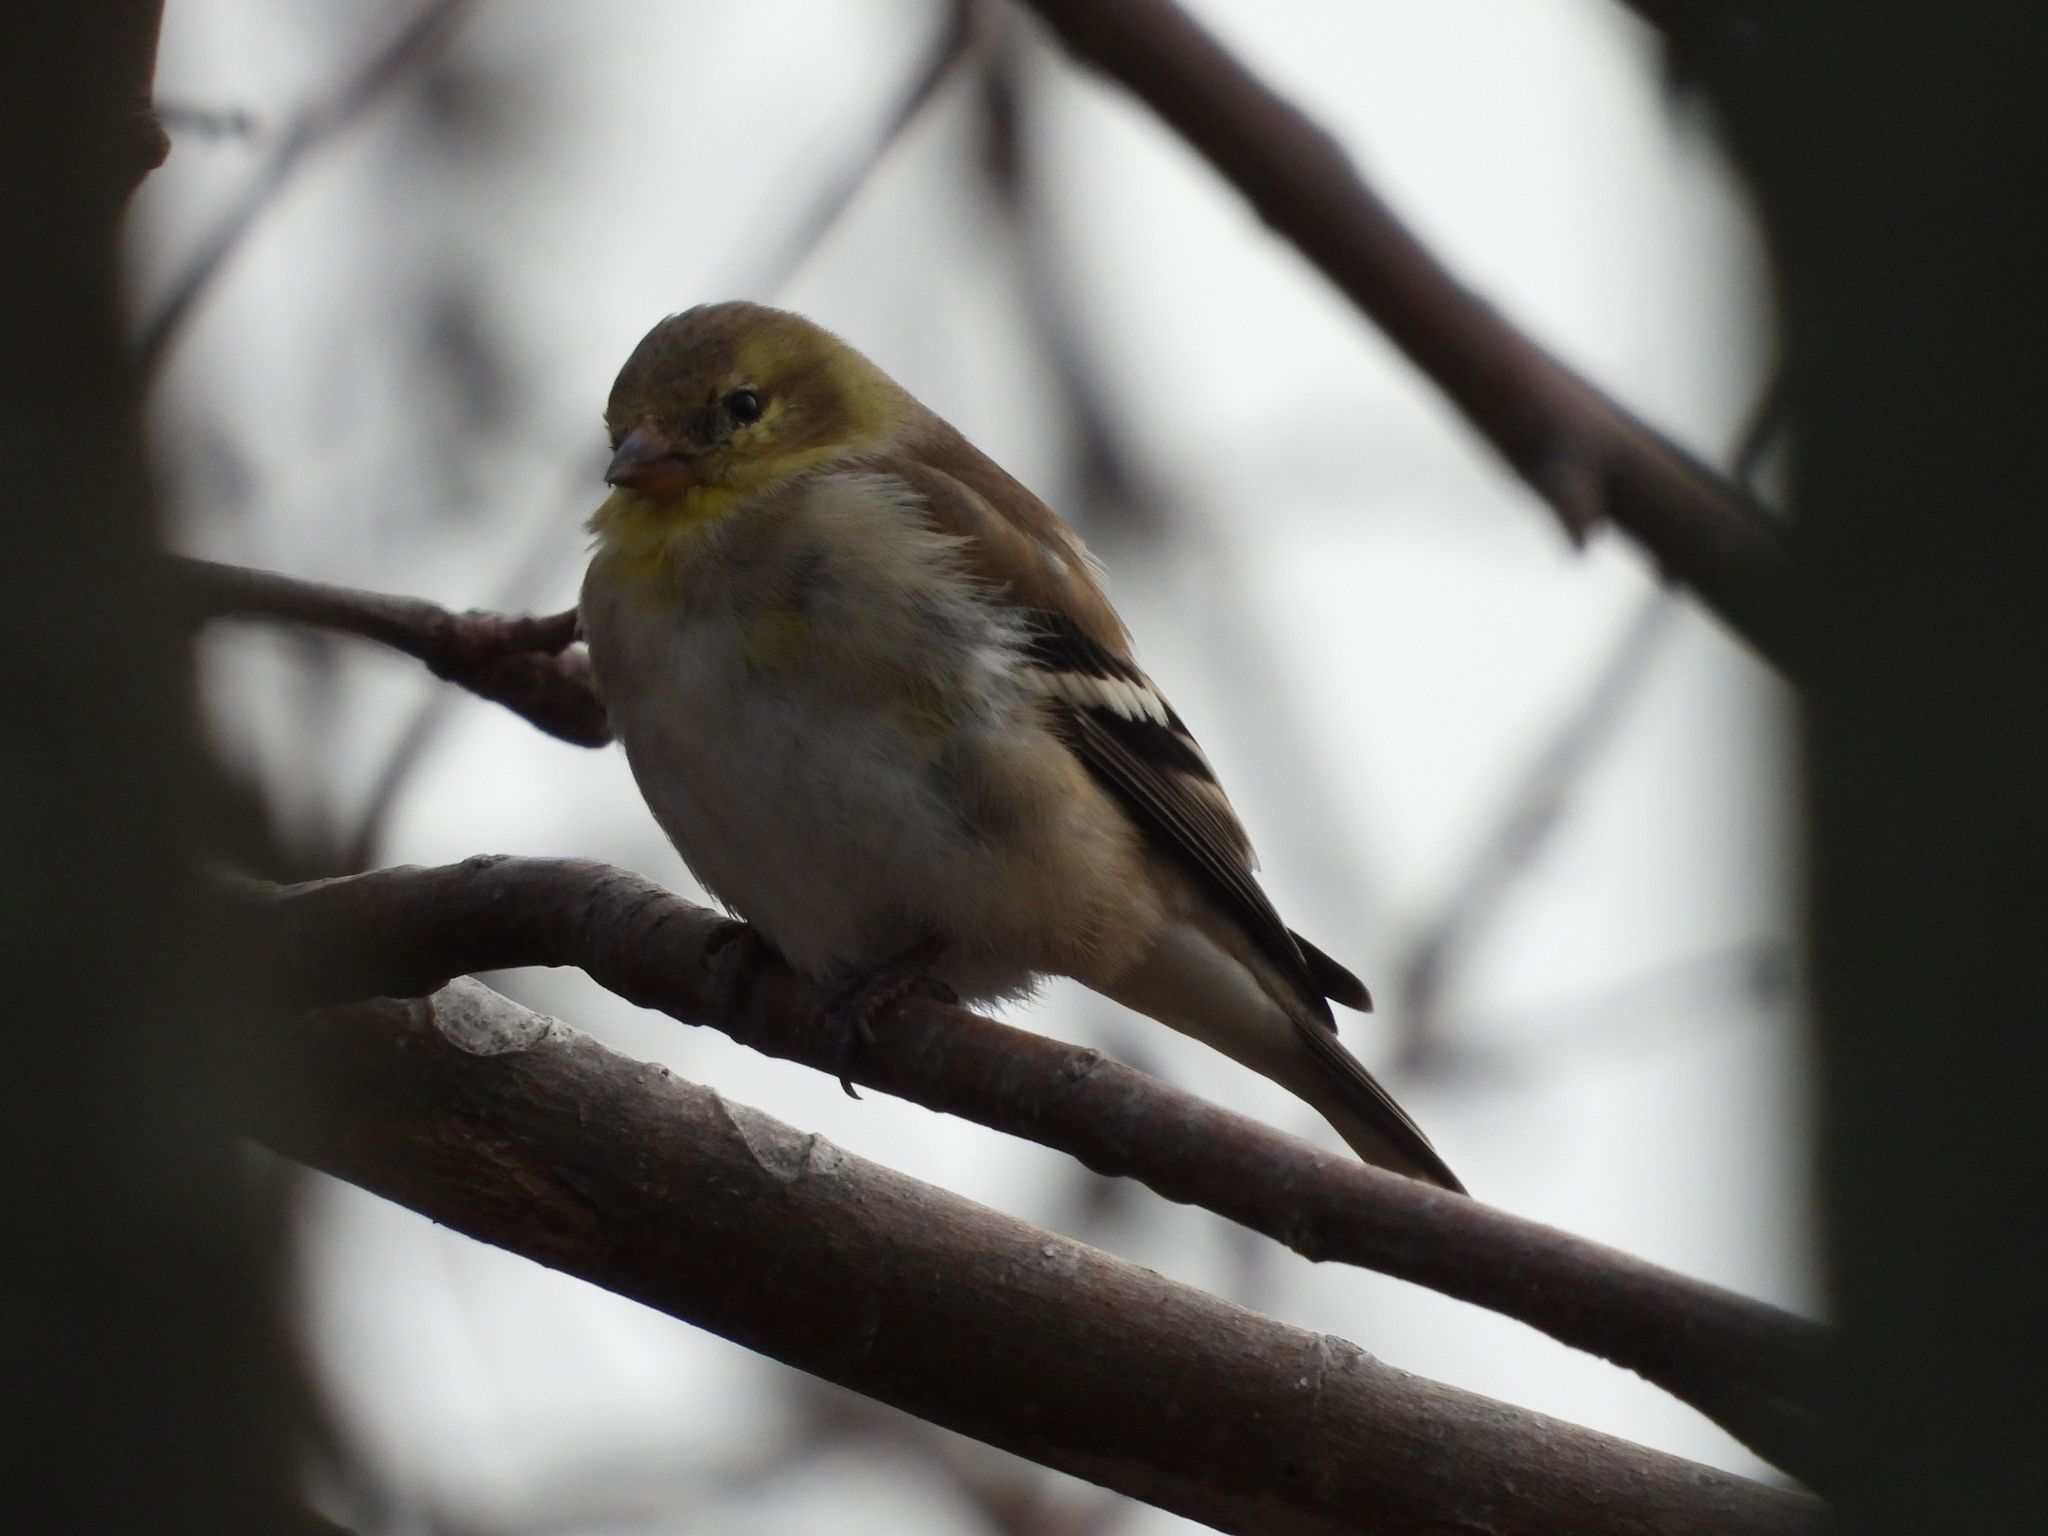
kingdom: Animalia
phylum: Chordata
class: Aves
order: Passeriformes
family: Fringillidae
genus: Spinus
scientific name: Spinus tristis
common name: American goldfinch
